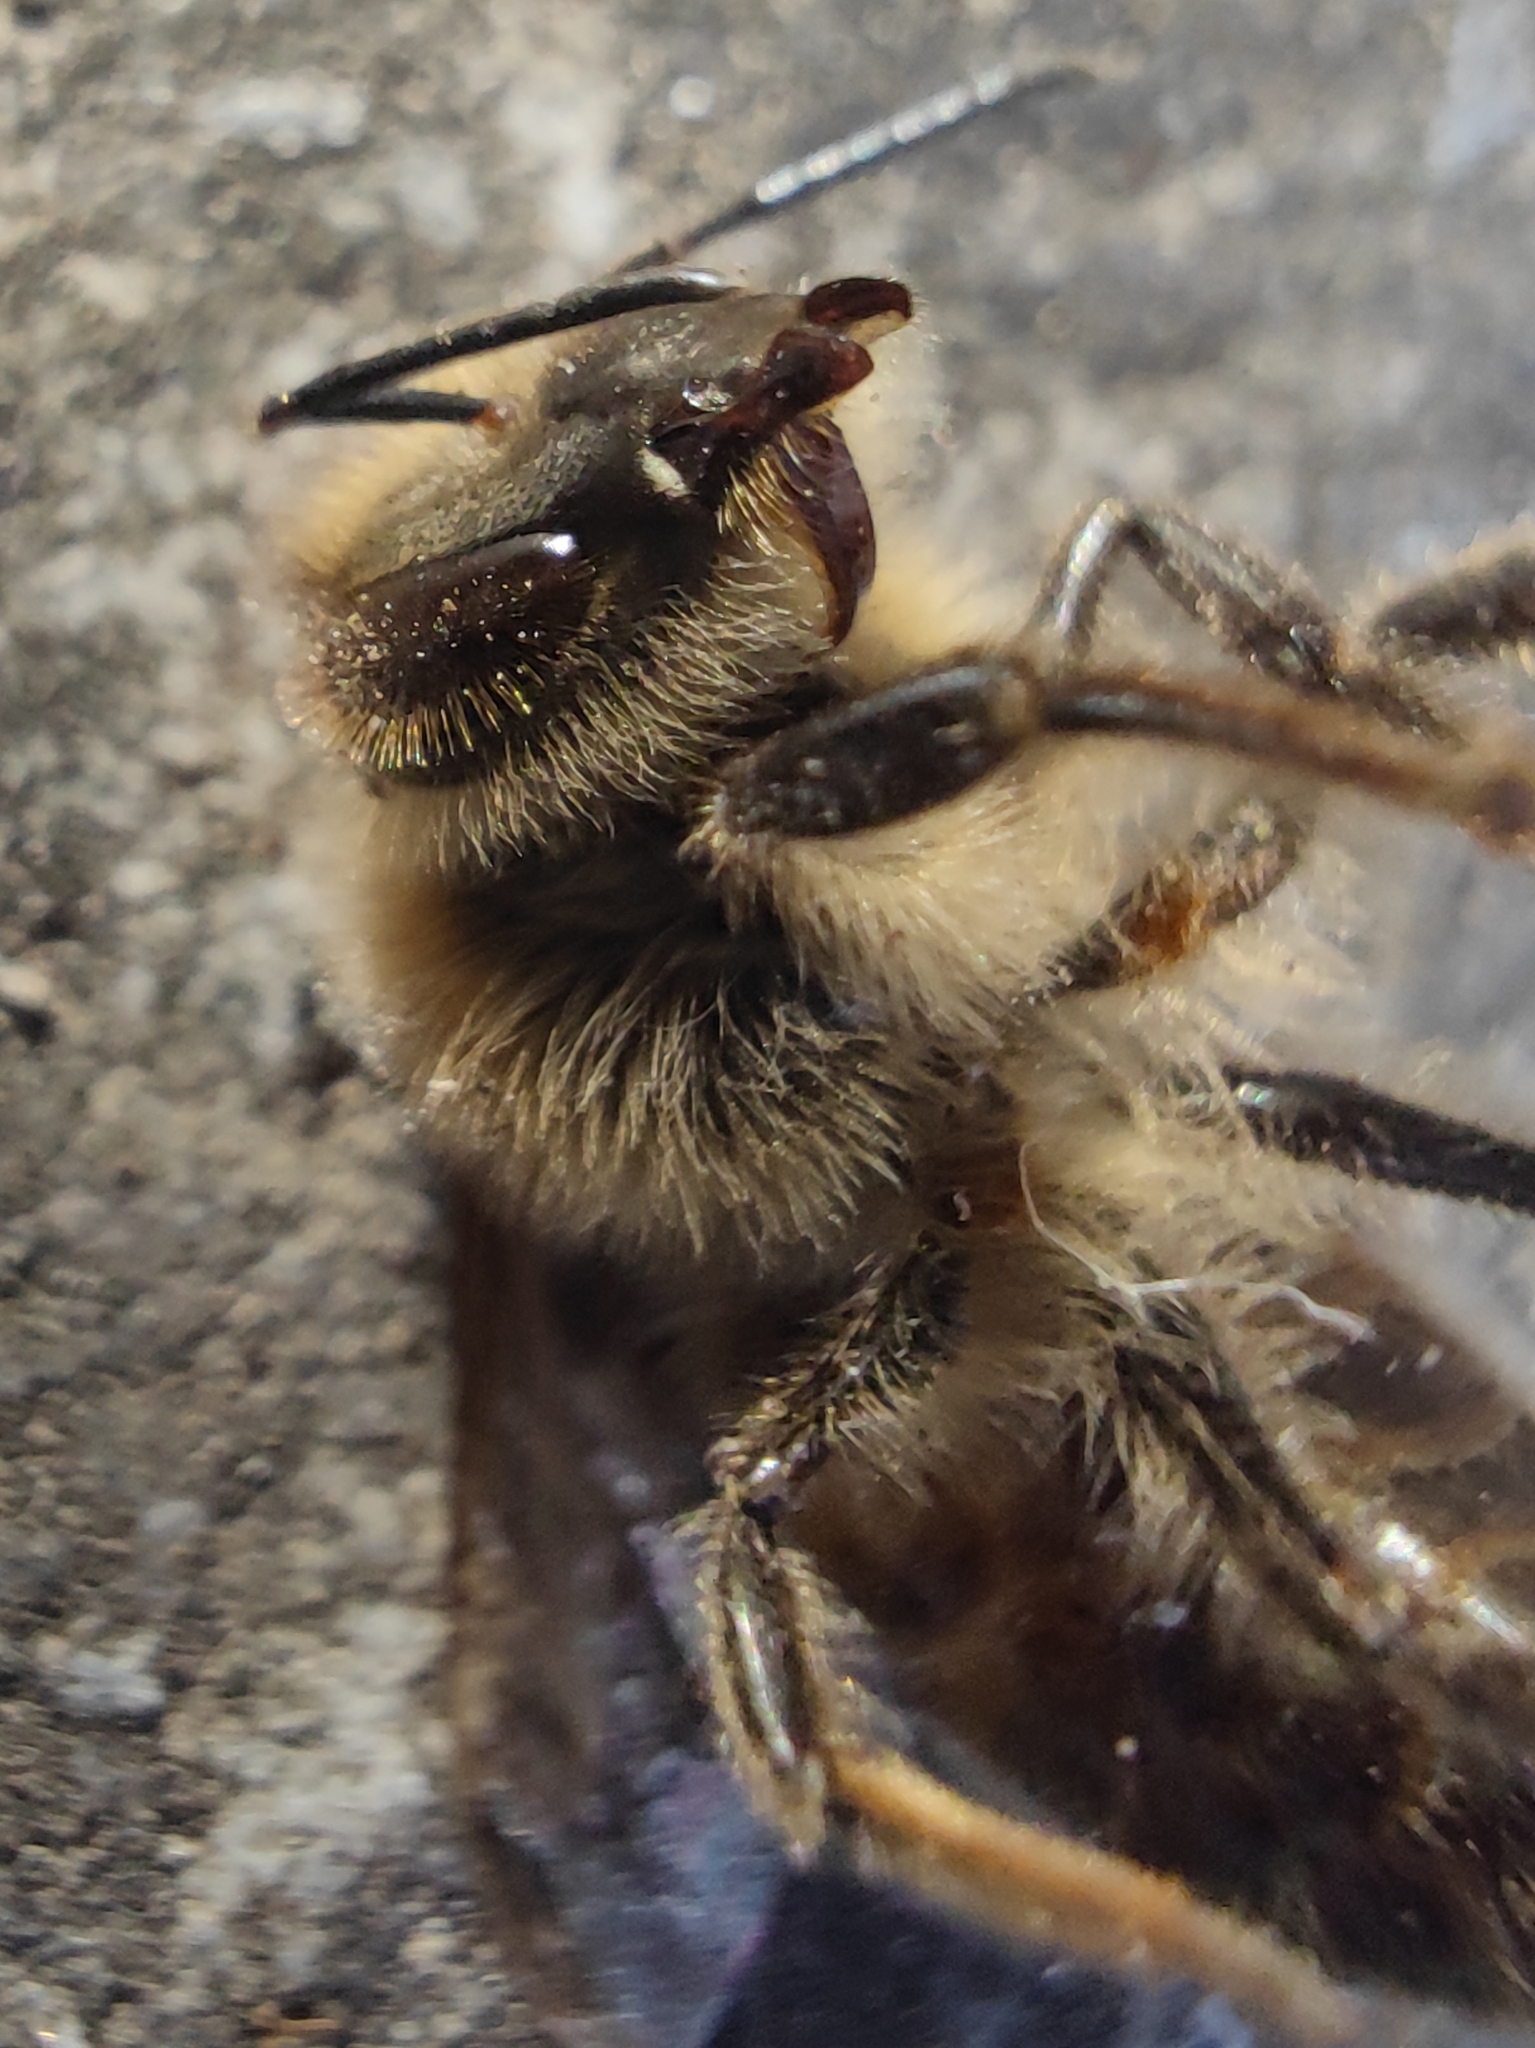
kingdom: Animalia
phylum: Arthropoda
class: Insecta
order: Hymenoptera
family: Apidae
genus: Apis
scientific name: Apis mellifera
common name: Honey bee
